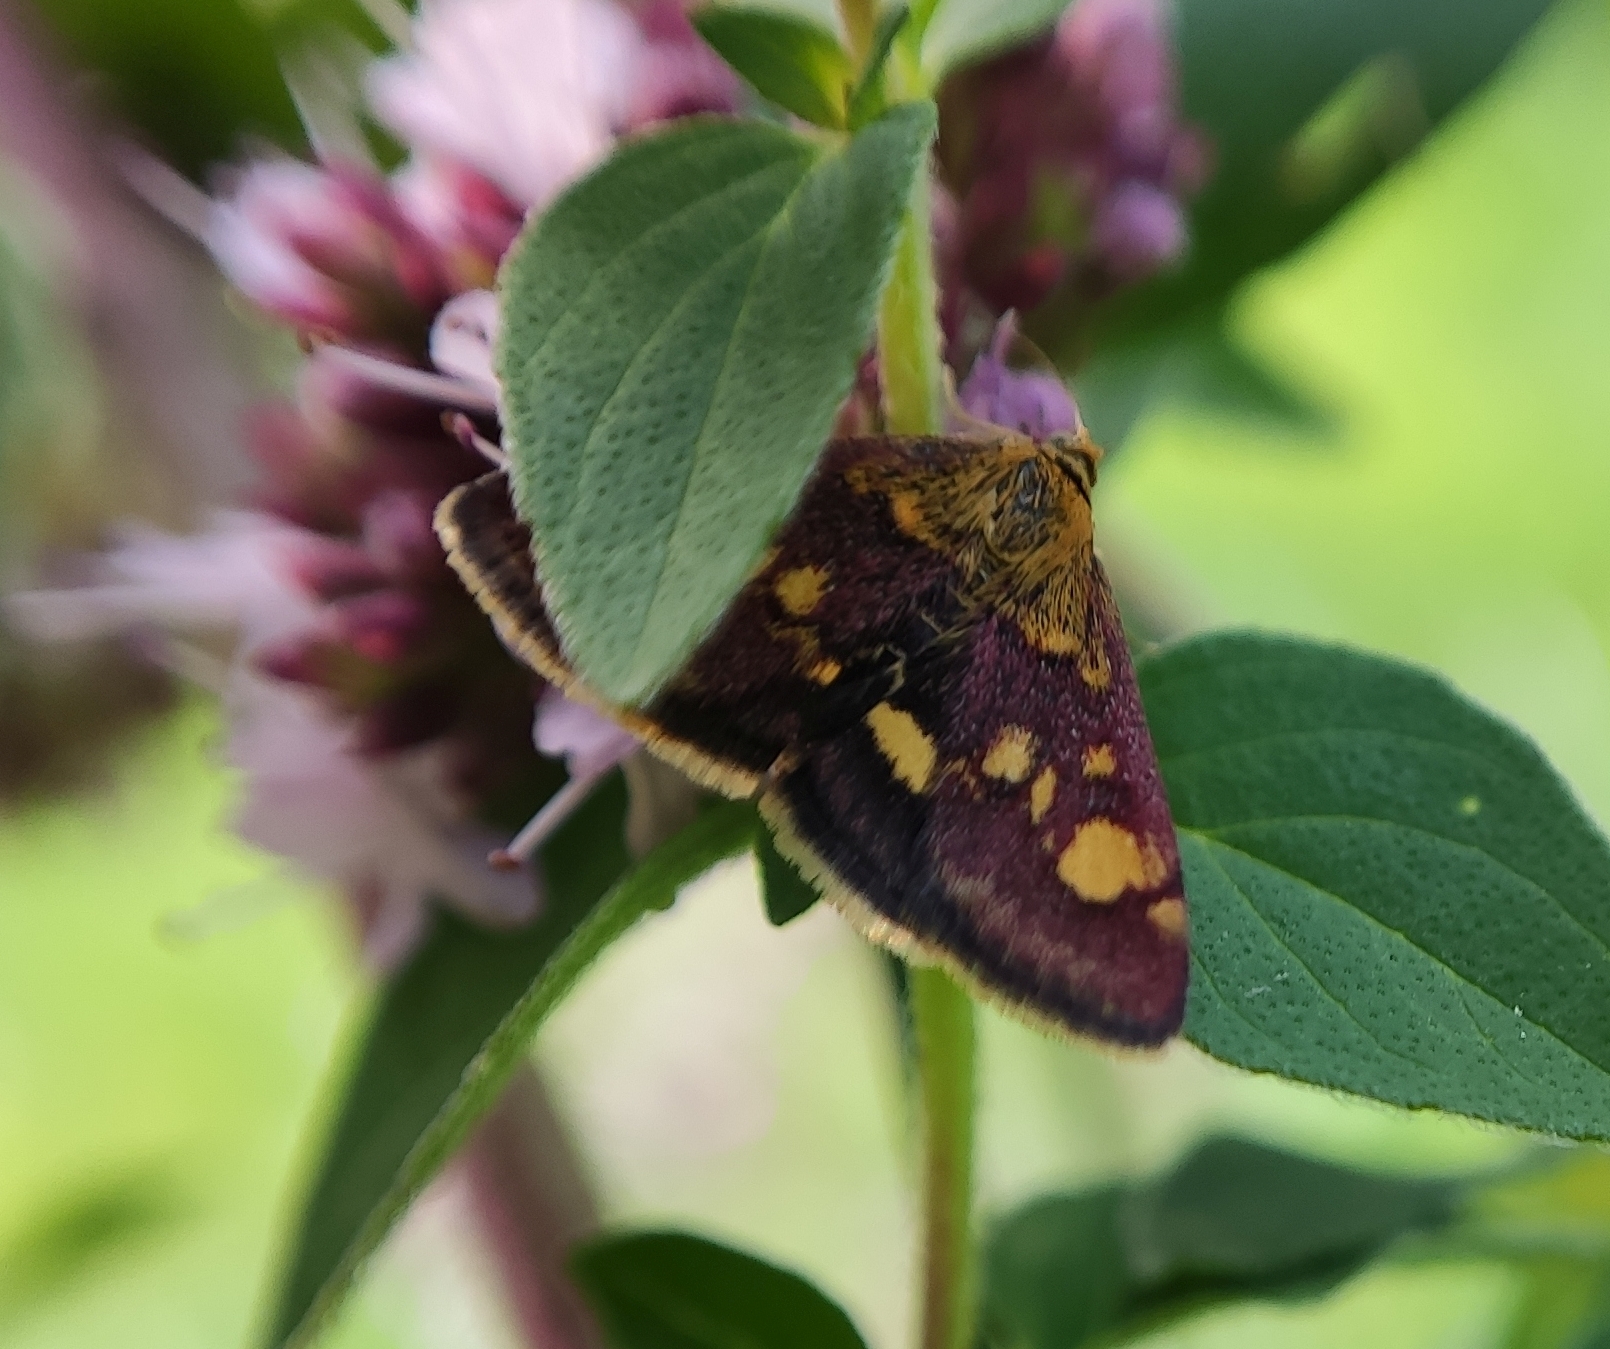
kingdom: Animalia
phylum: Arthropoda
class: Insecta
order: Lepidoptera
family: Crambidae
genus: Pyrausta
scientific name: Pyrausta aurata
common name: Small purple & gold
